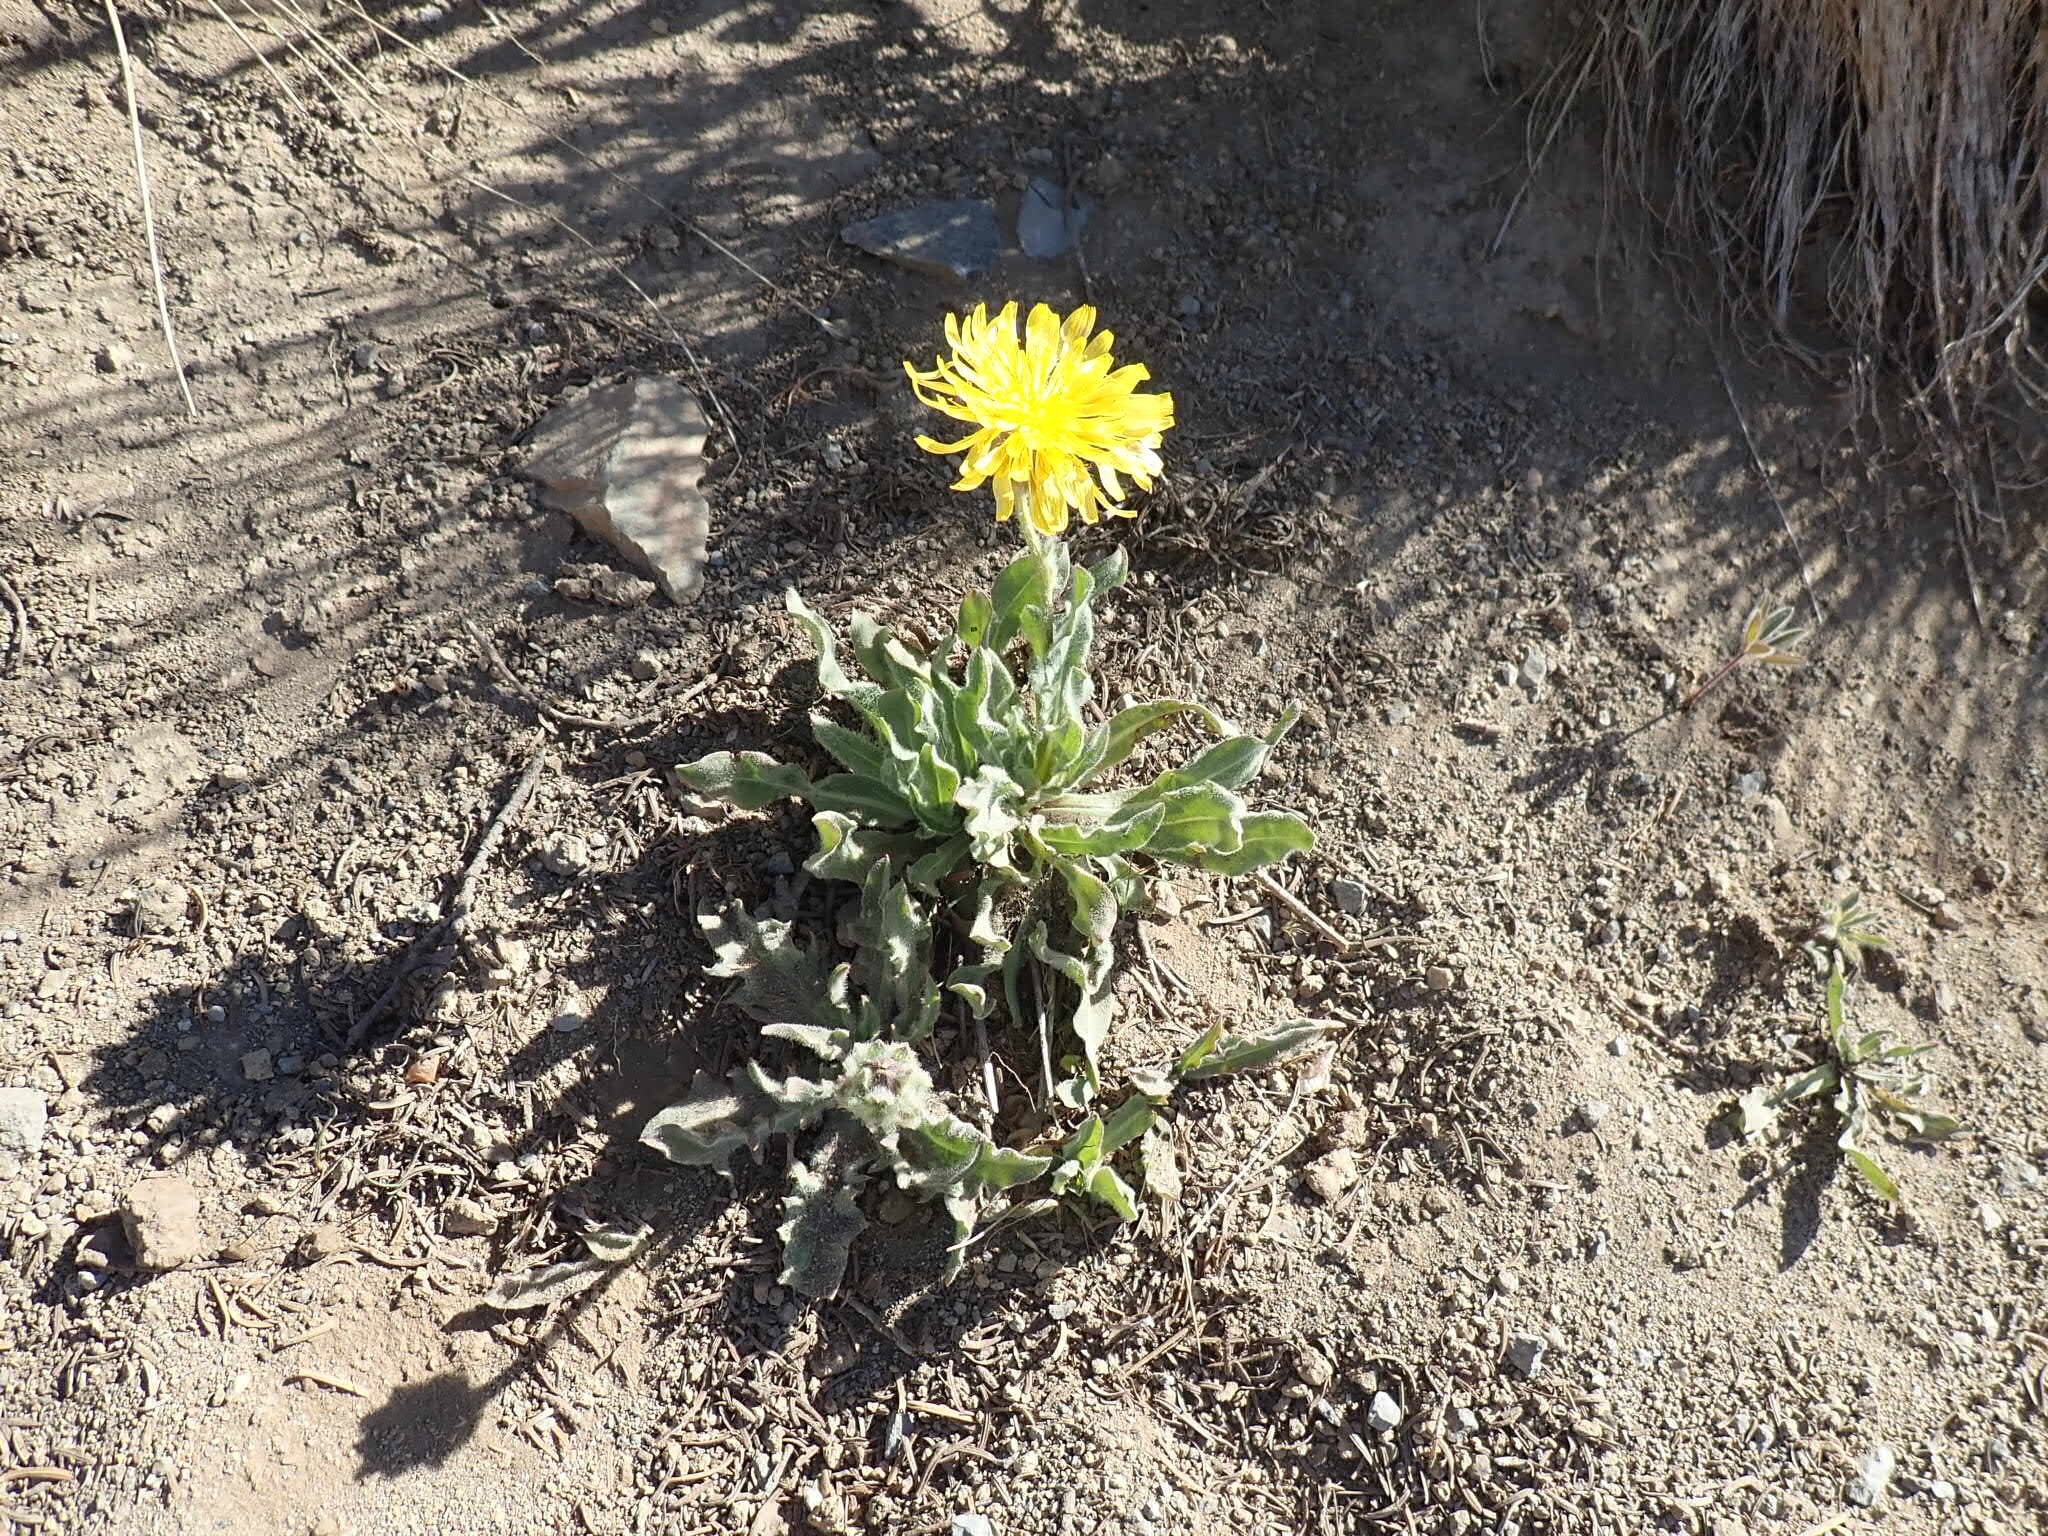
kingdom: Plantae
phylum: Tracheophyta
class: Magnoliopsida
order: Asterales
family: Asteraceae
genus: Agoseris
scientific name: Agoseris glauca
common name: Prairie agoseris
